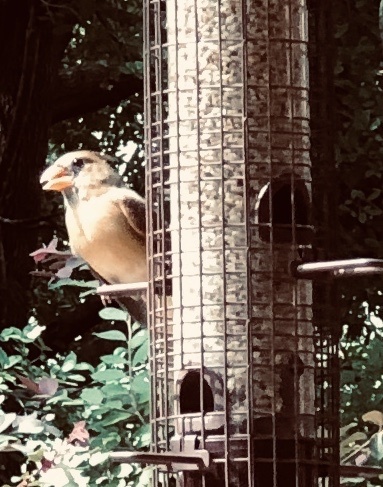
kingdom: Animalia
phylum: Chordata
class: Aves
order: Passeriformes
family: Cardinalidae
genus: Cardinalis
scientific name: Cardinalis cardinalis
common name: Northern cardinal
